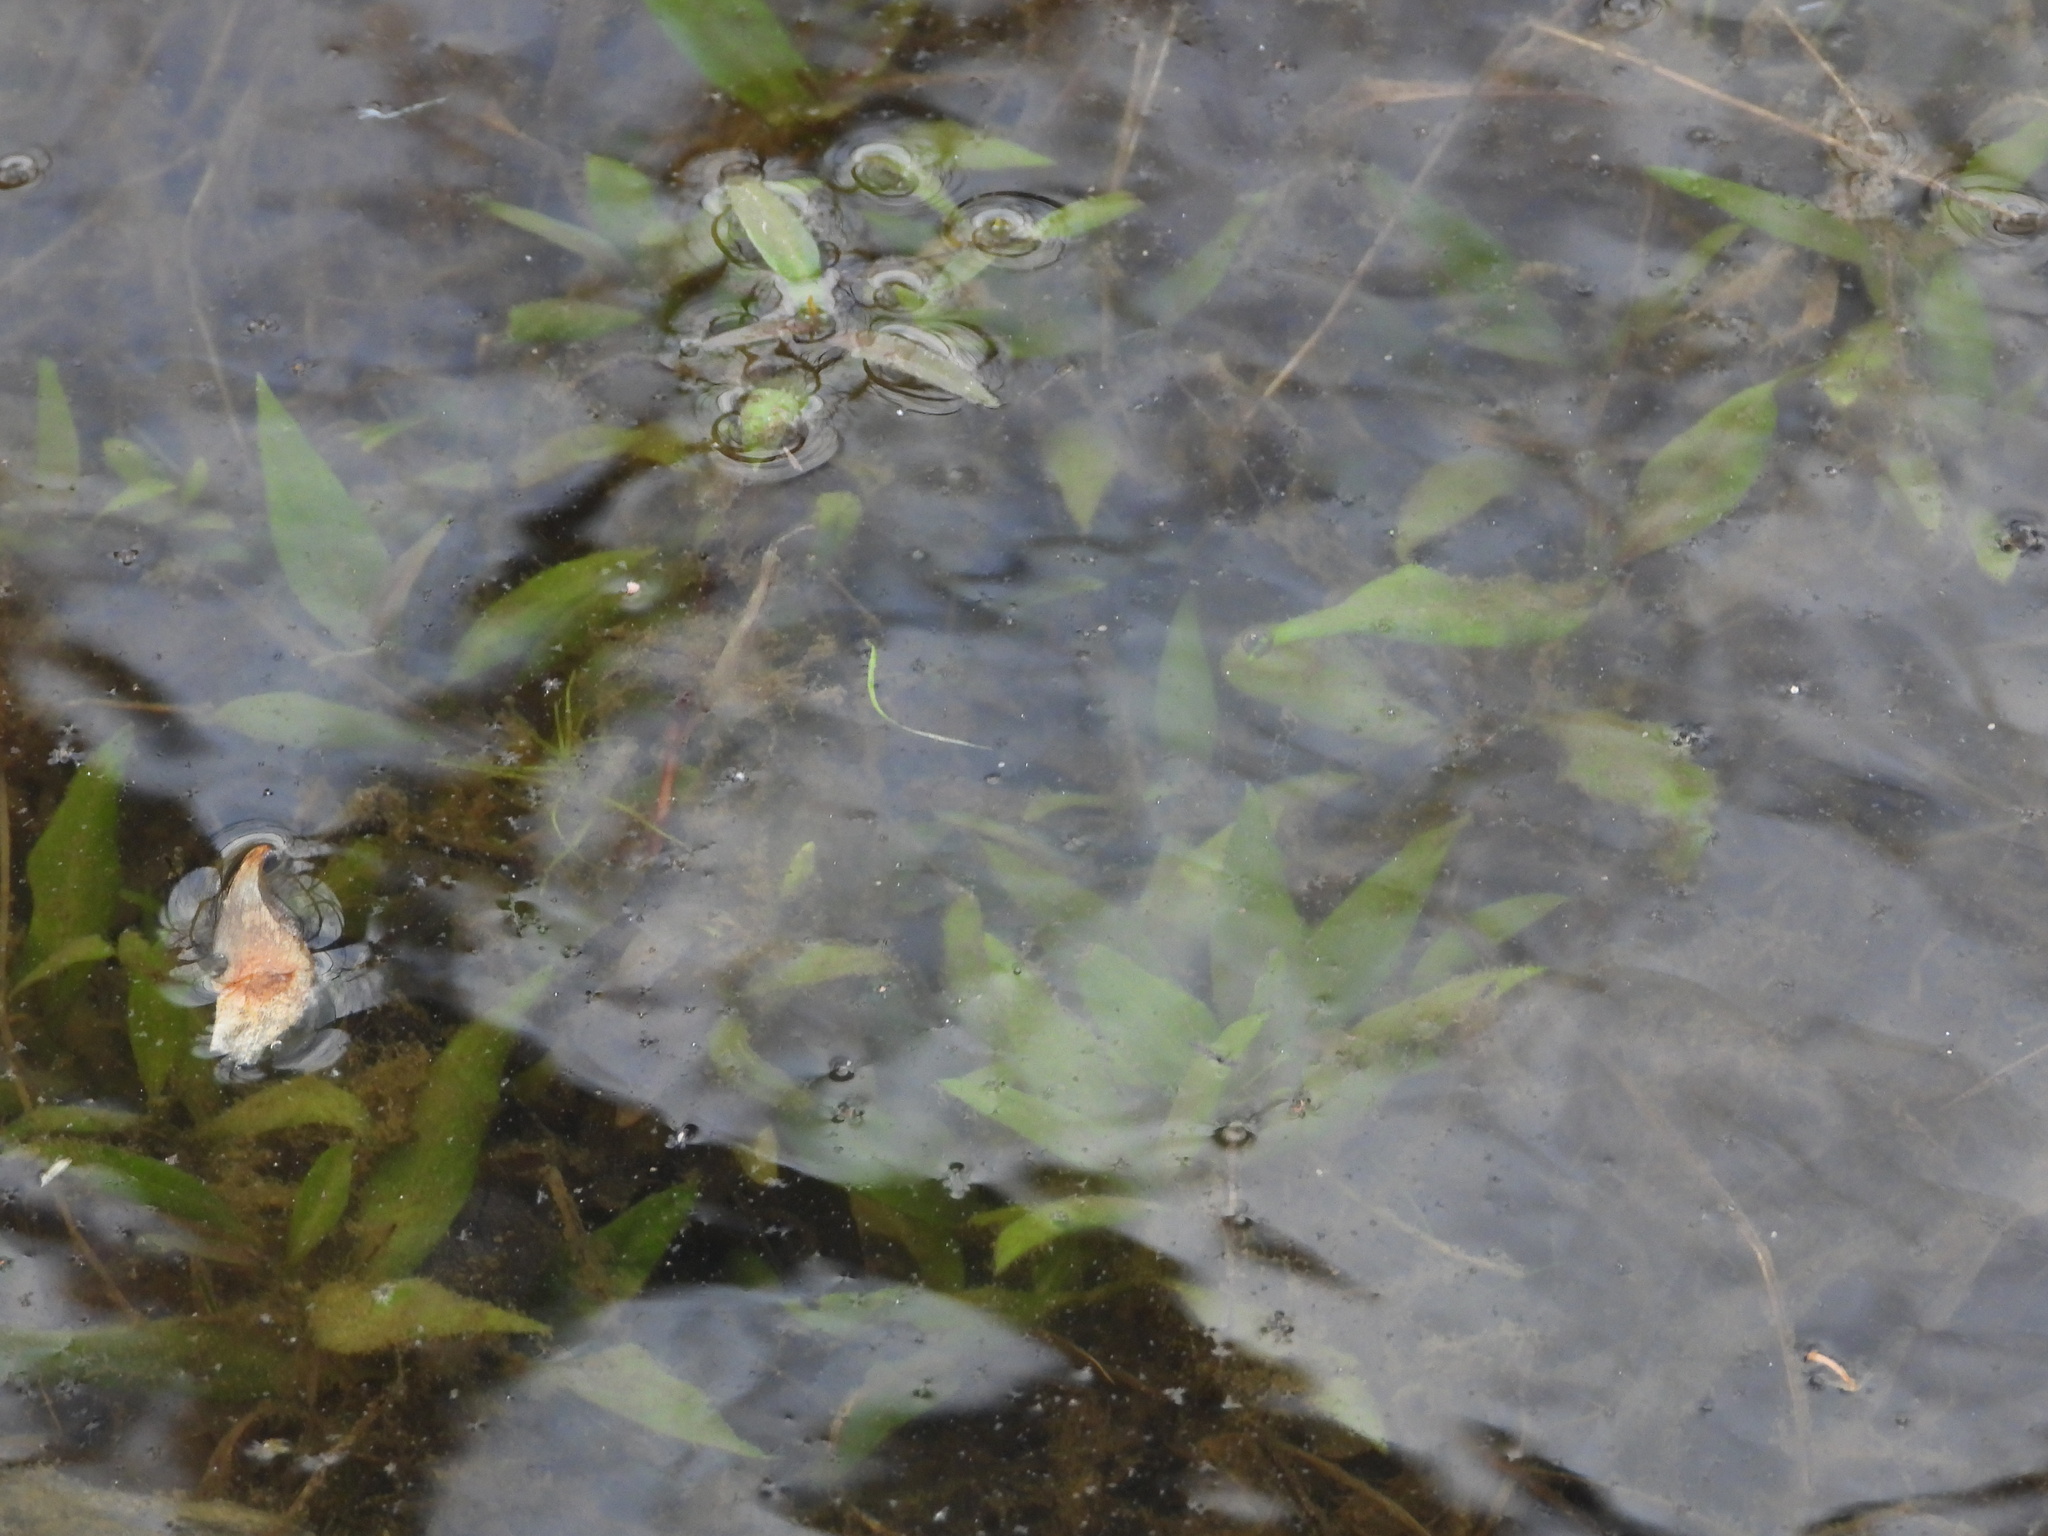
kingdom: Plantae
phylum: Tracheophyta
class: Magnoliopsida
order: Caryophyllales
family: Polygonaceae
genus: Rumex
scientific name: Rumex verticillatus
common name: Swamp dock
